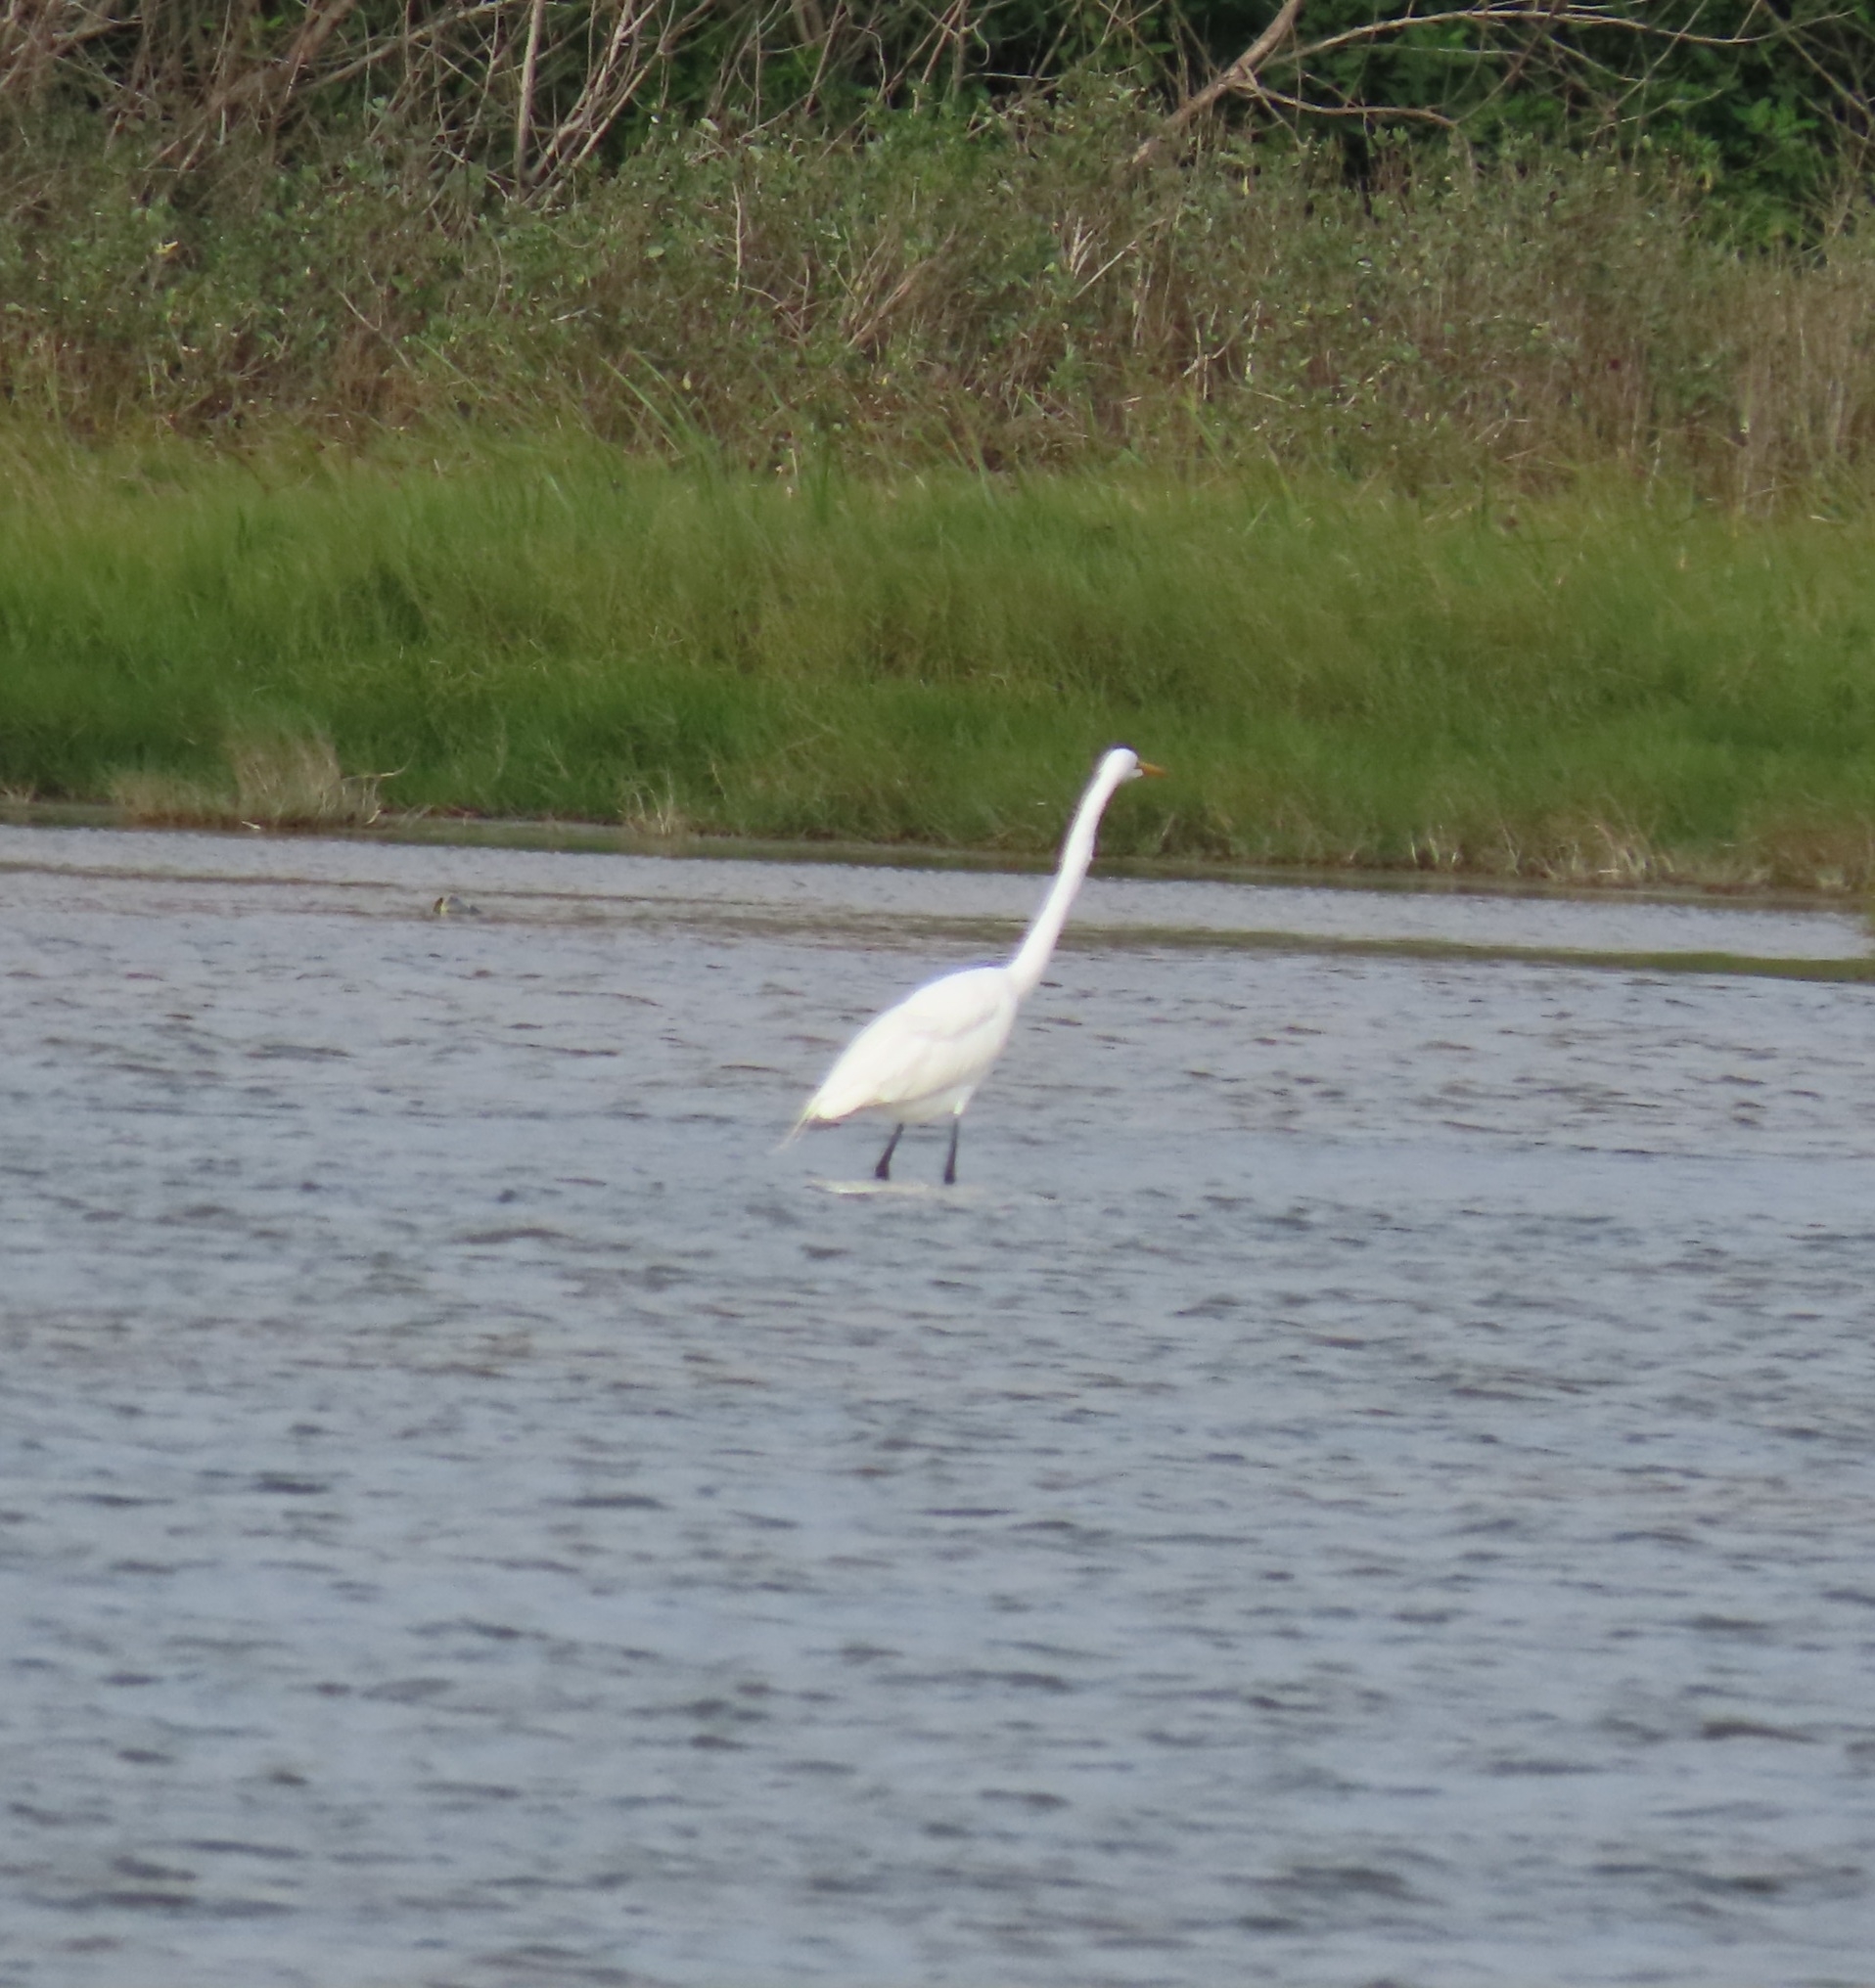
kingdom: Animalia
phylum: Chordata
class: Aves
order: Pelecaniformes
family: Ardeidae
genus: Ardea
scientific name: Ardea alba
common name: Great egret
